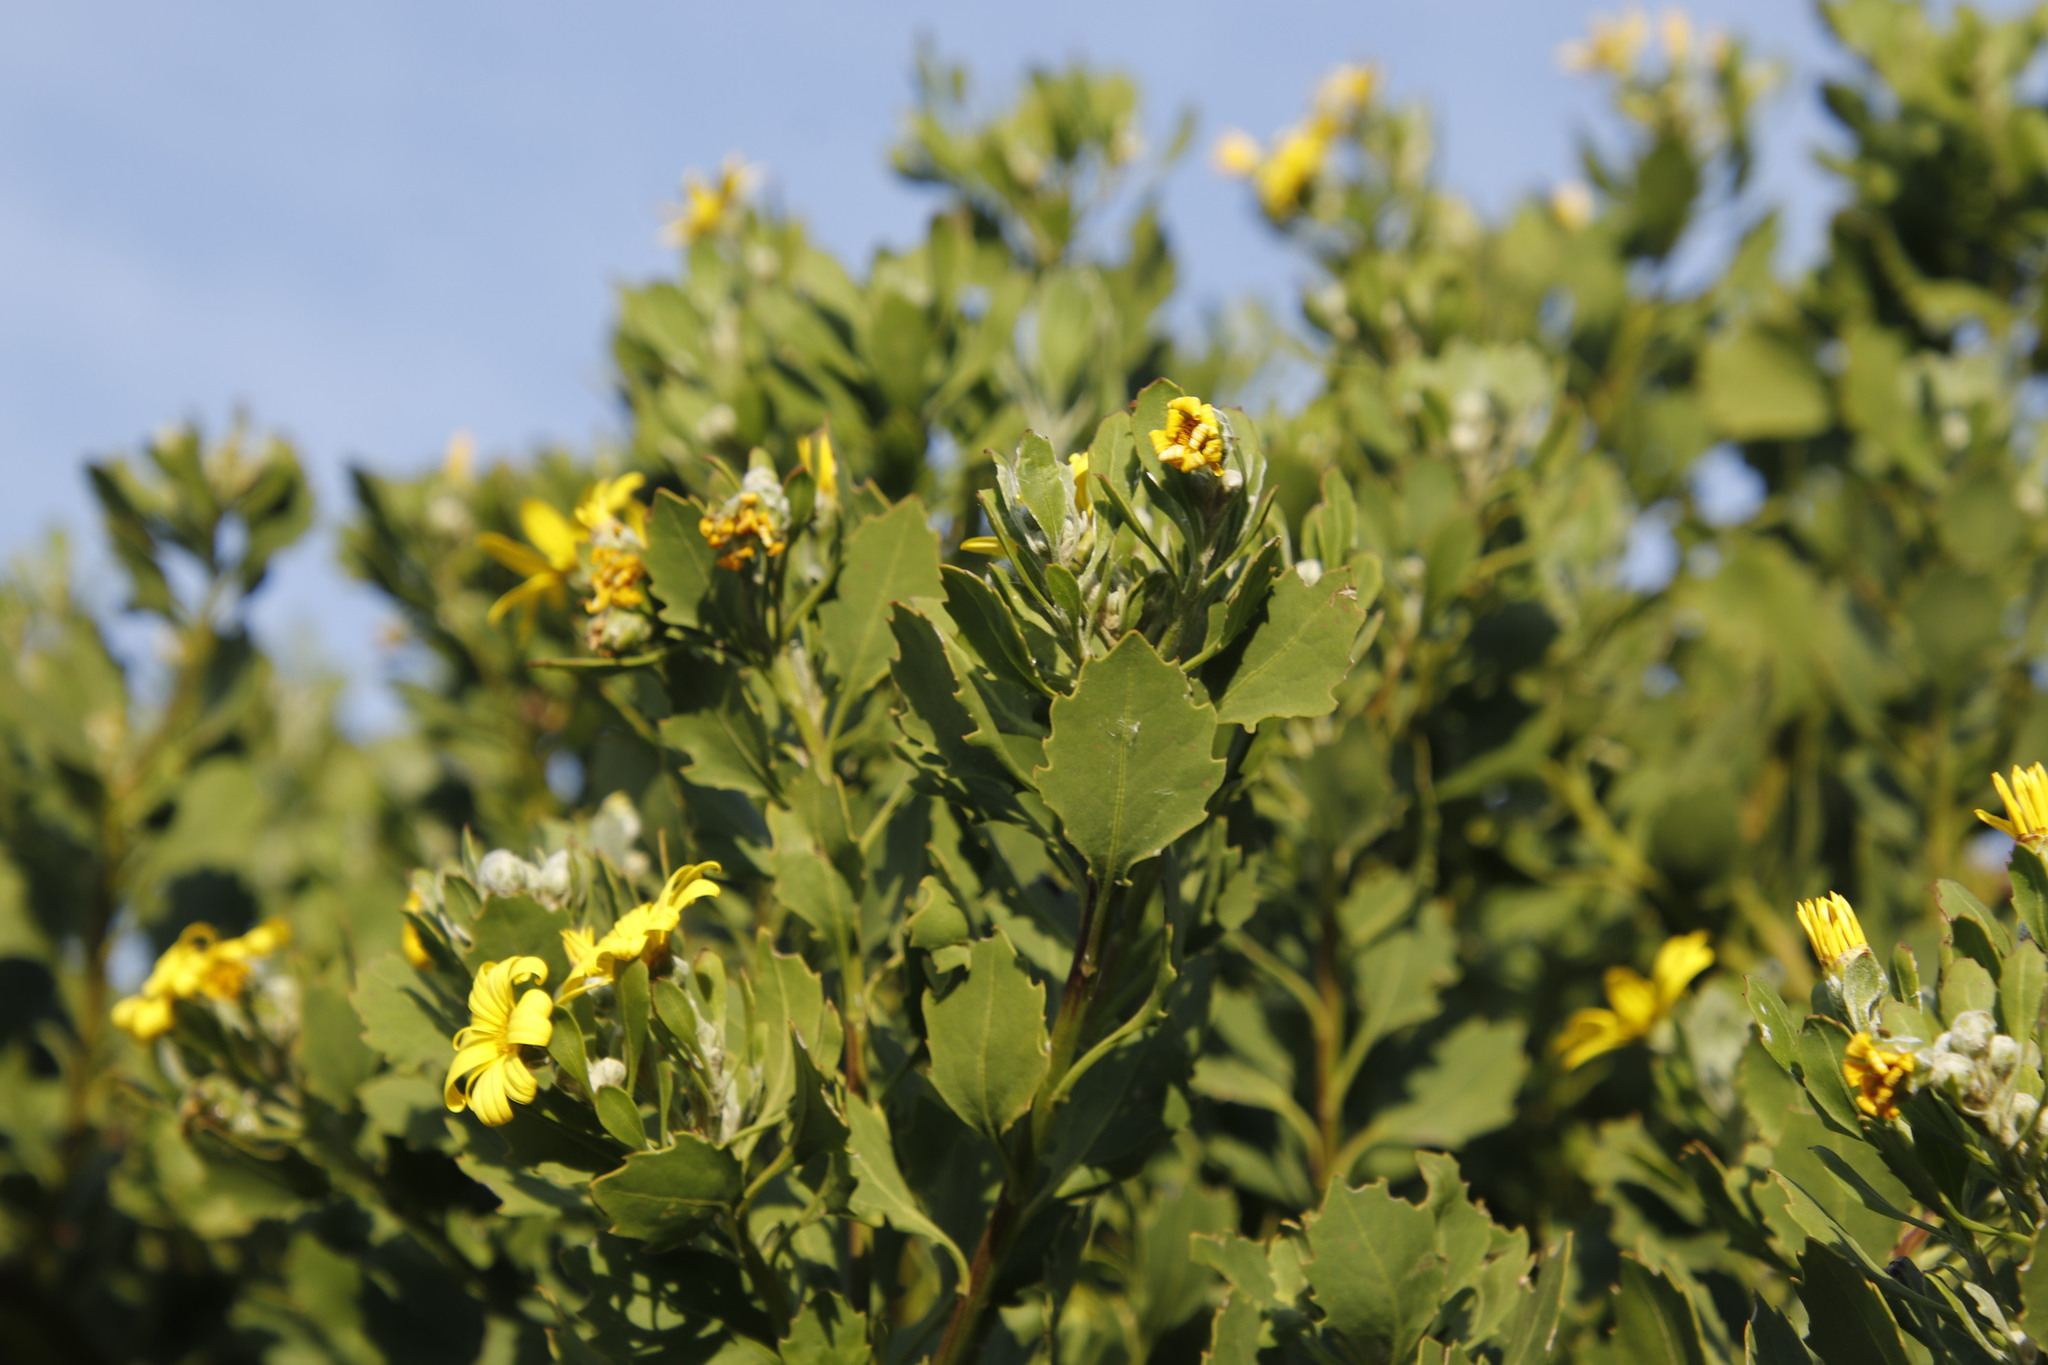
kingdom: Plantae
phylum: Tracheophyta
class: Magnoliopsida
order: Asterales
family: Asteraceae
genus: Osteospermum
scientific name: Osteospermum moniliferum
